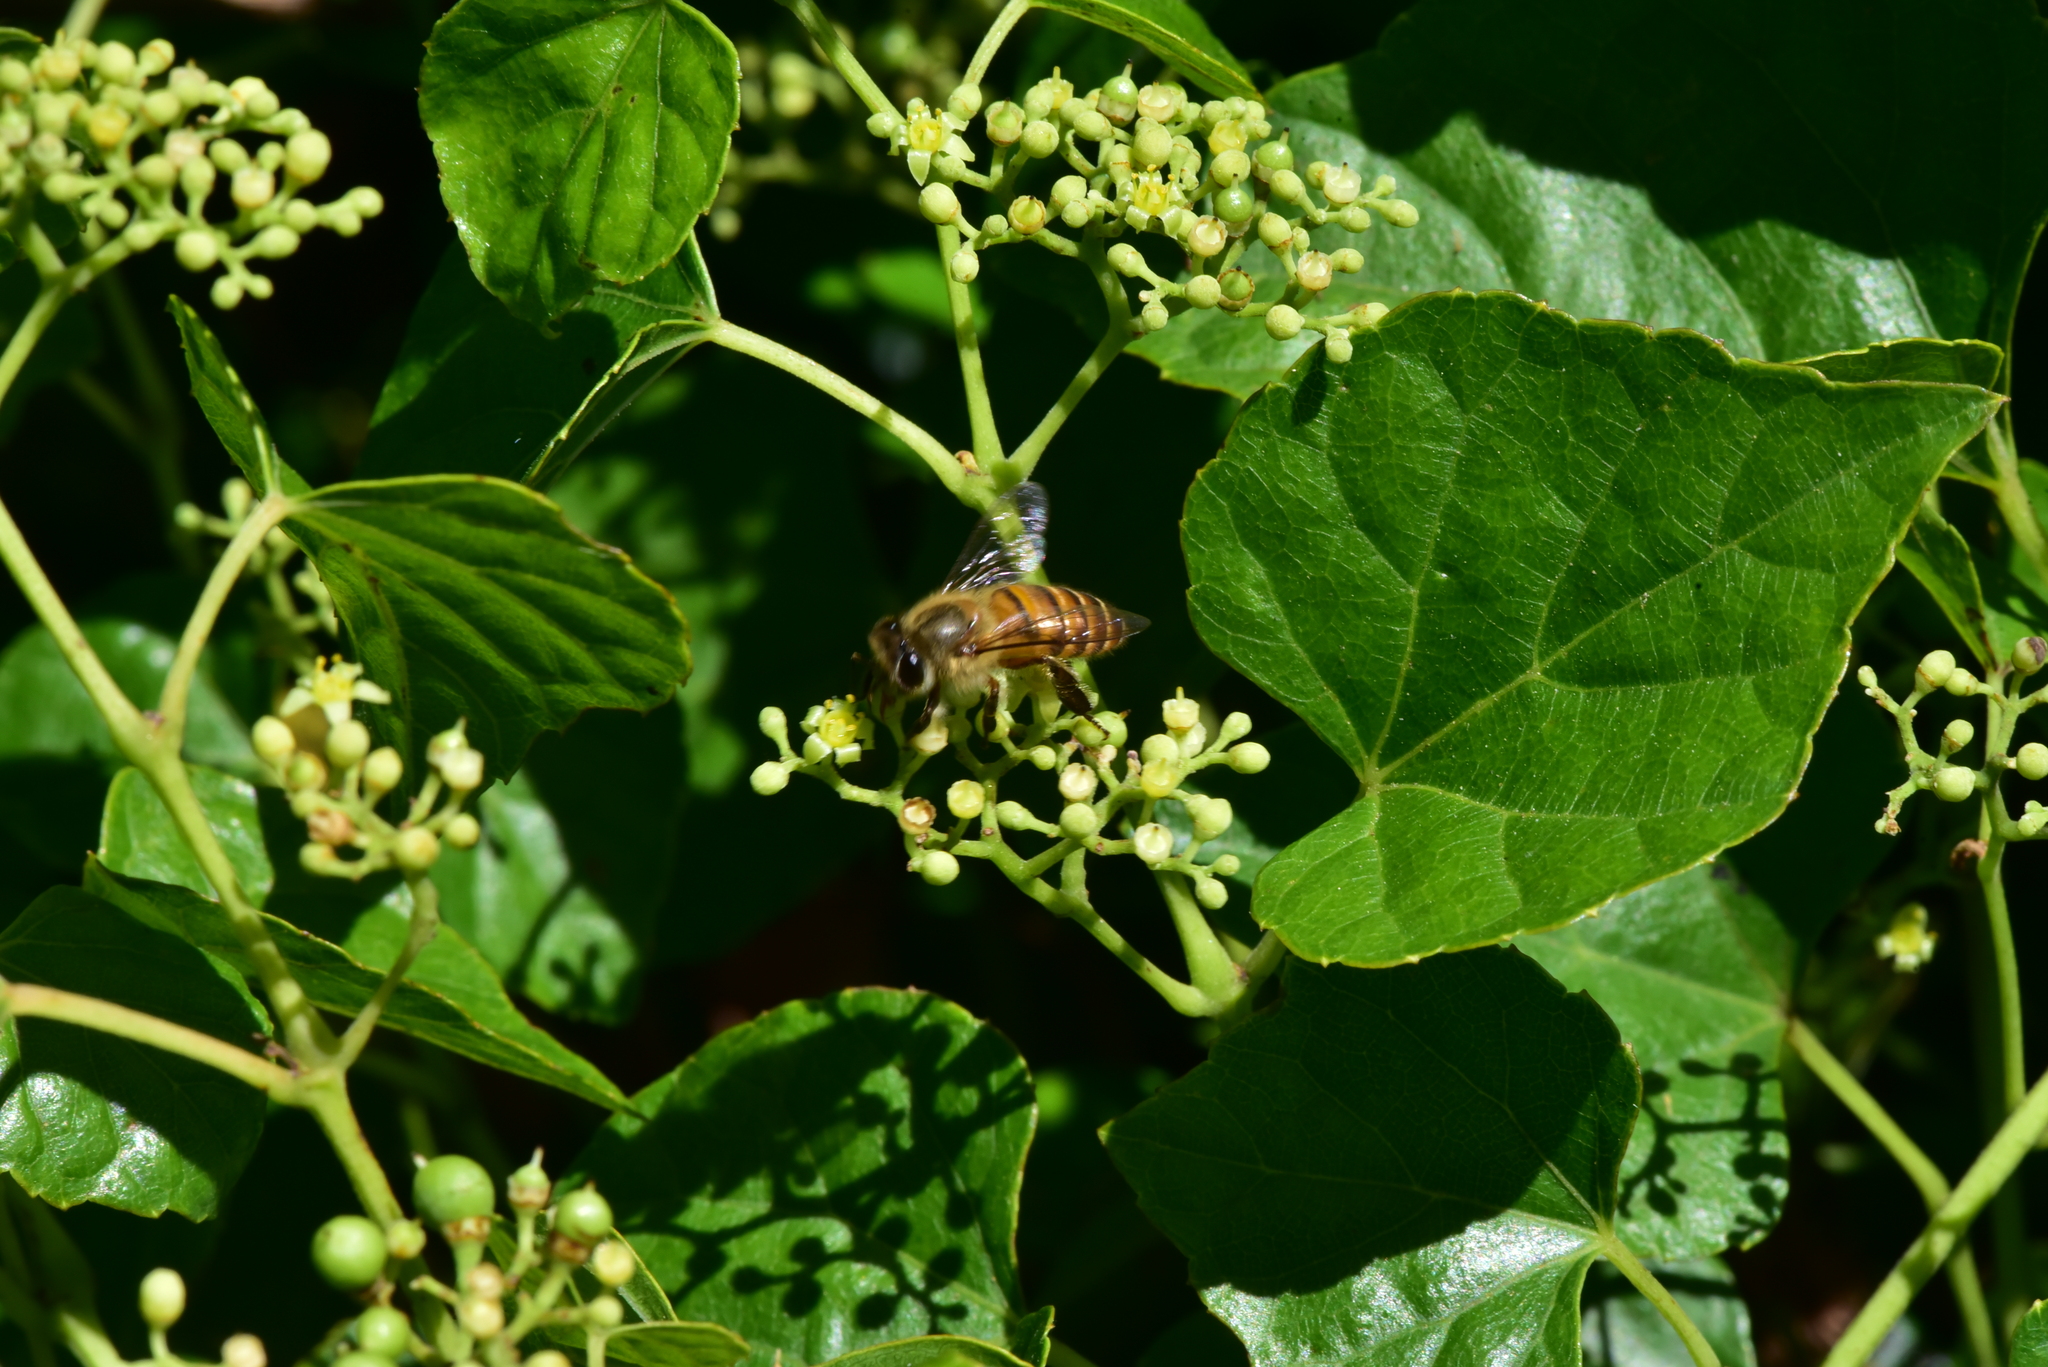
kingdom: Animalia
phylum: Arthropoda
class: Insecta
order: Hymenoptera
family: Apidae
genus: Apis
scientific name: Apis cerana
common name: Honey bee
